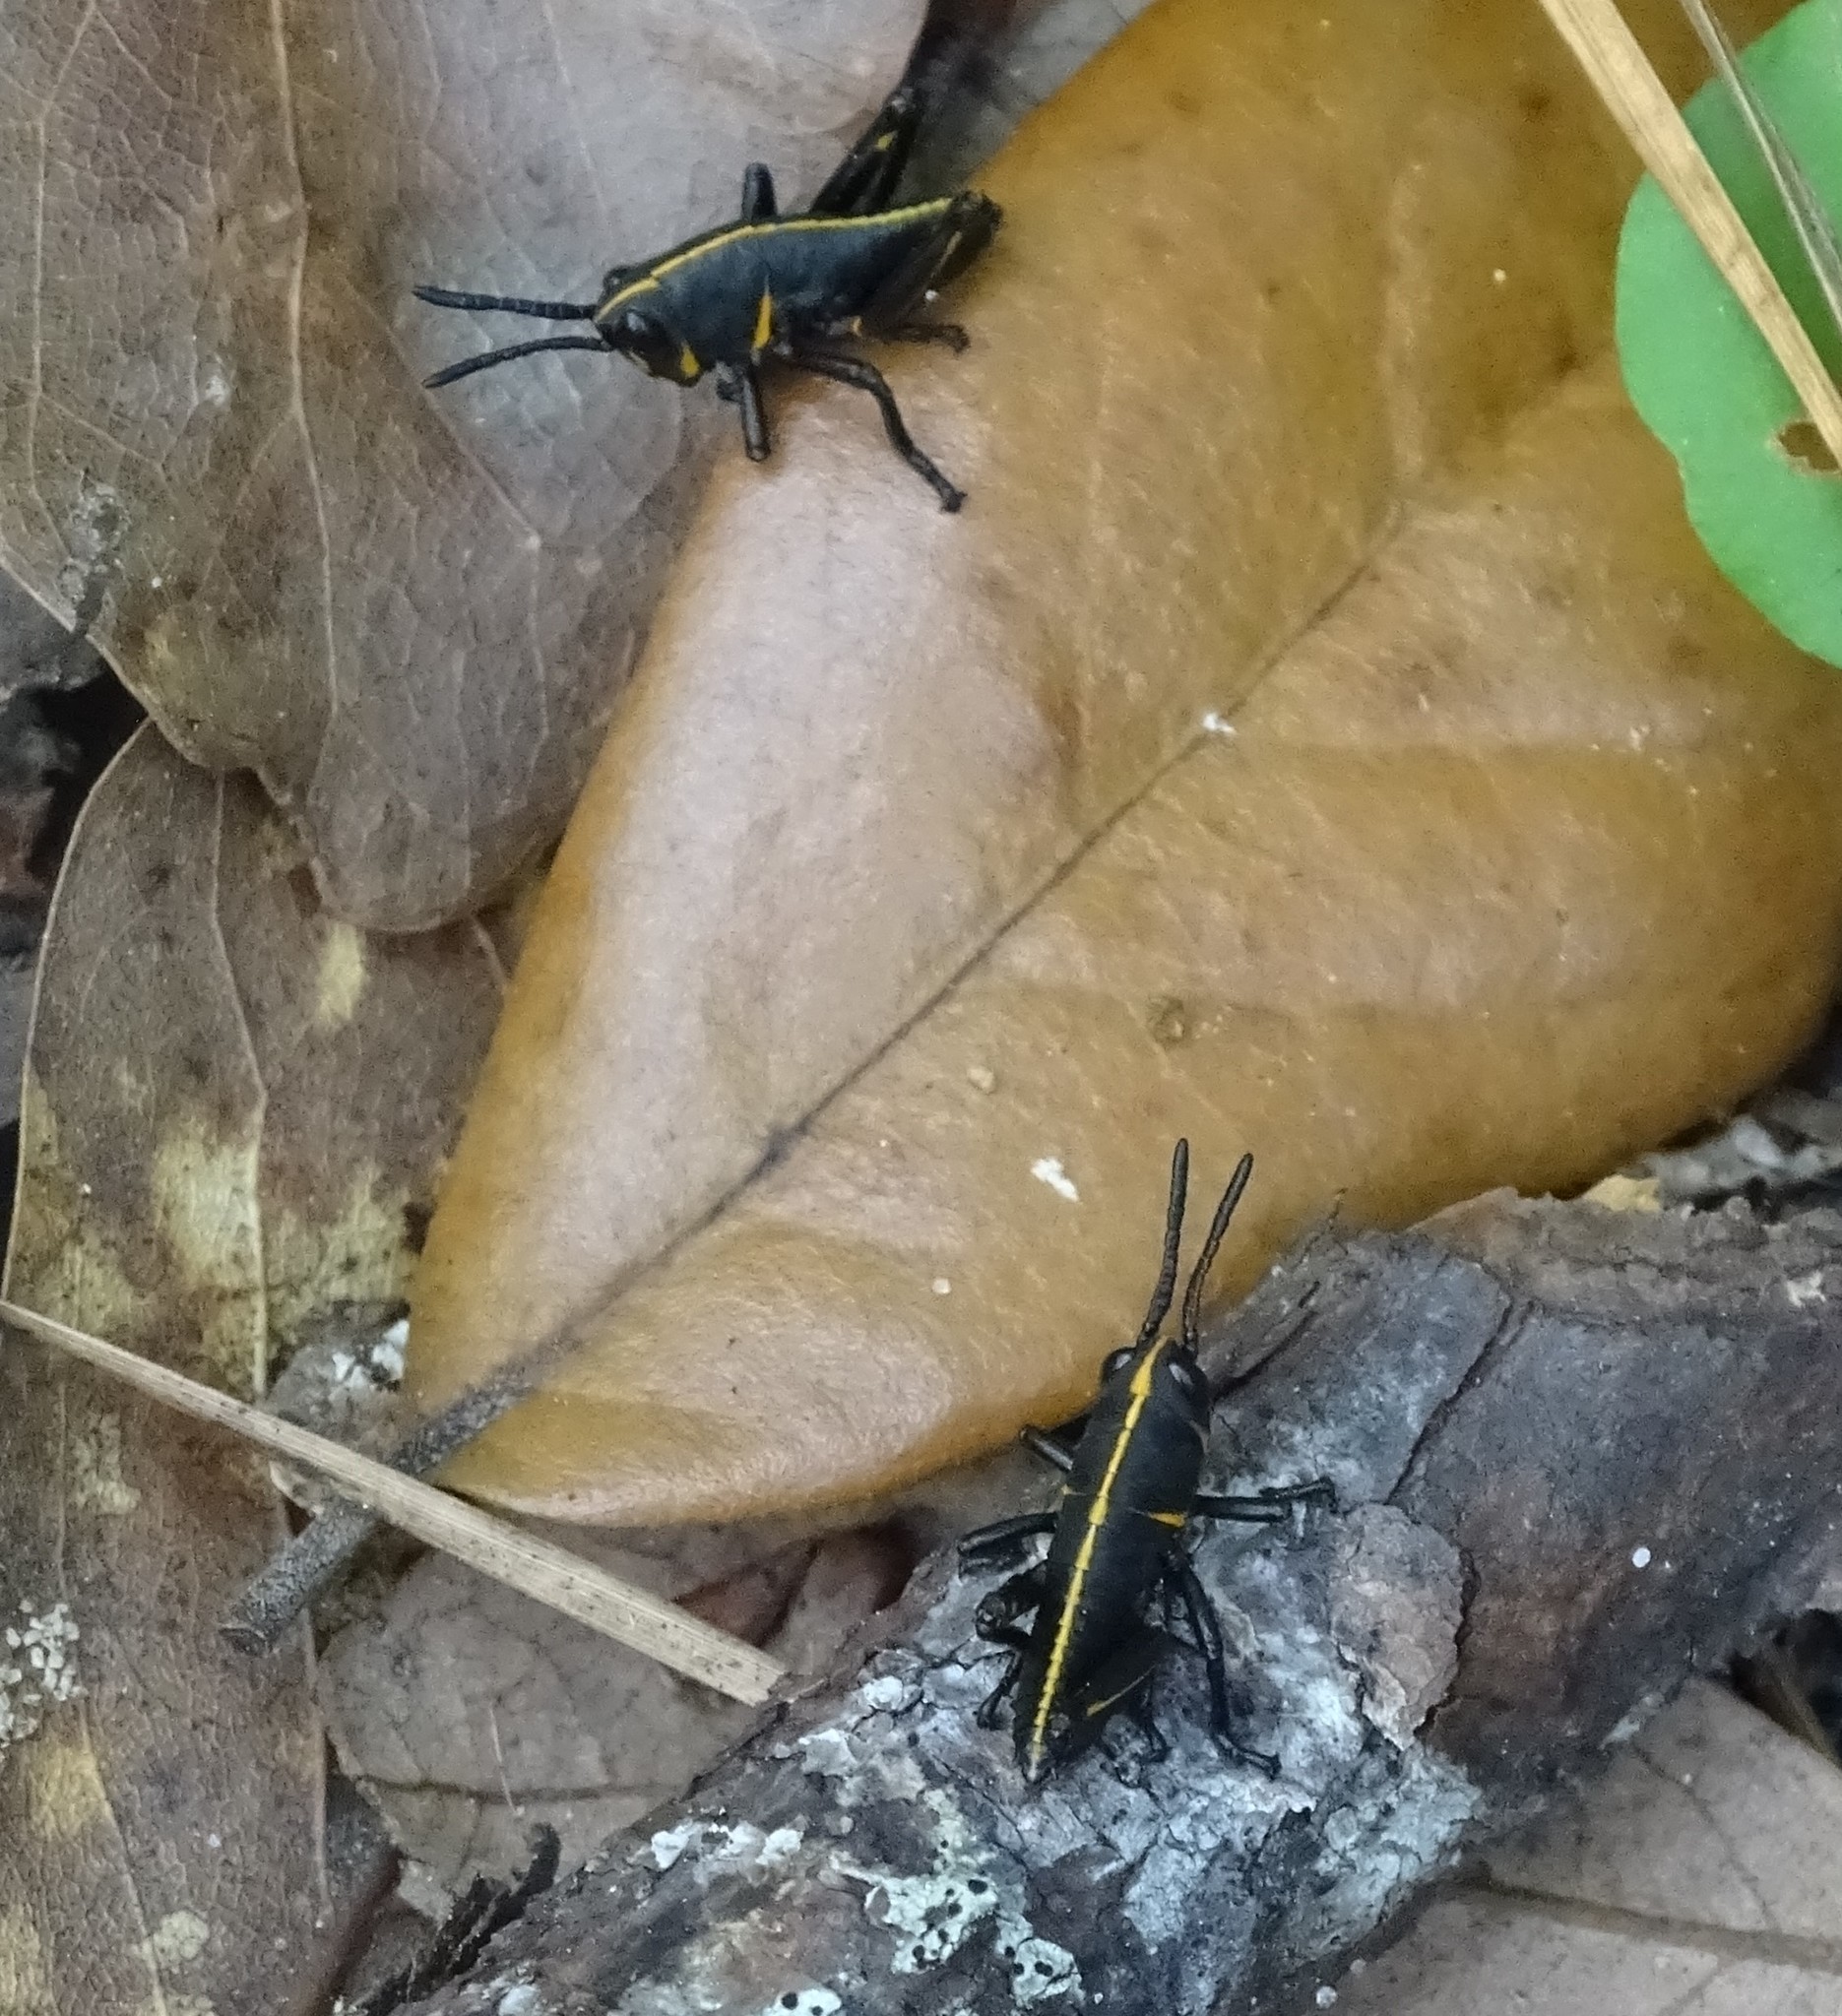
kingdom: Animalia
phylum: Arthropoda
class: Insecta
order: Orthoptera
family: Romaleidae
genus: Romalea
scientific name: Romalea microptera
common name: Eastern lubber grasshopper
